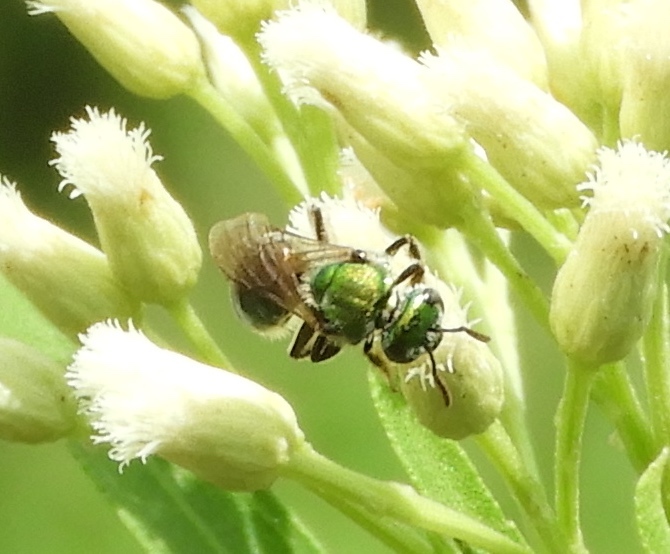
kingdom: Animalia
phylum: Arthropoda
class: Insecta
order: Hymenoptera
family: Halictidae
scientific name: Halictidae
